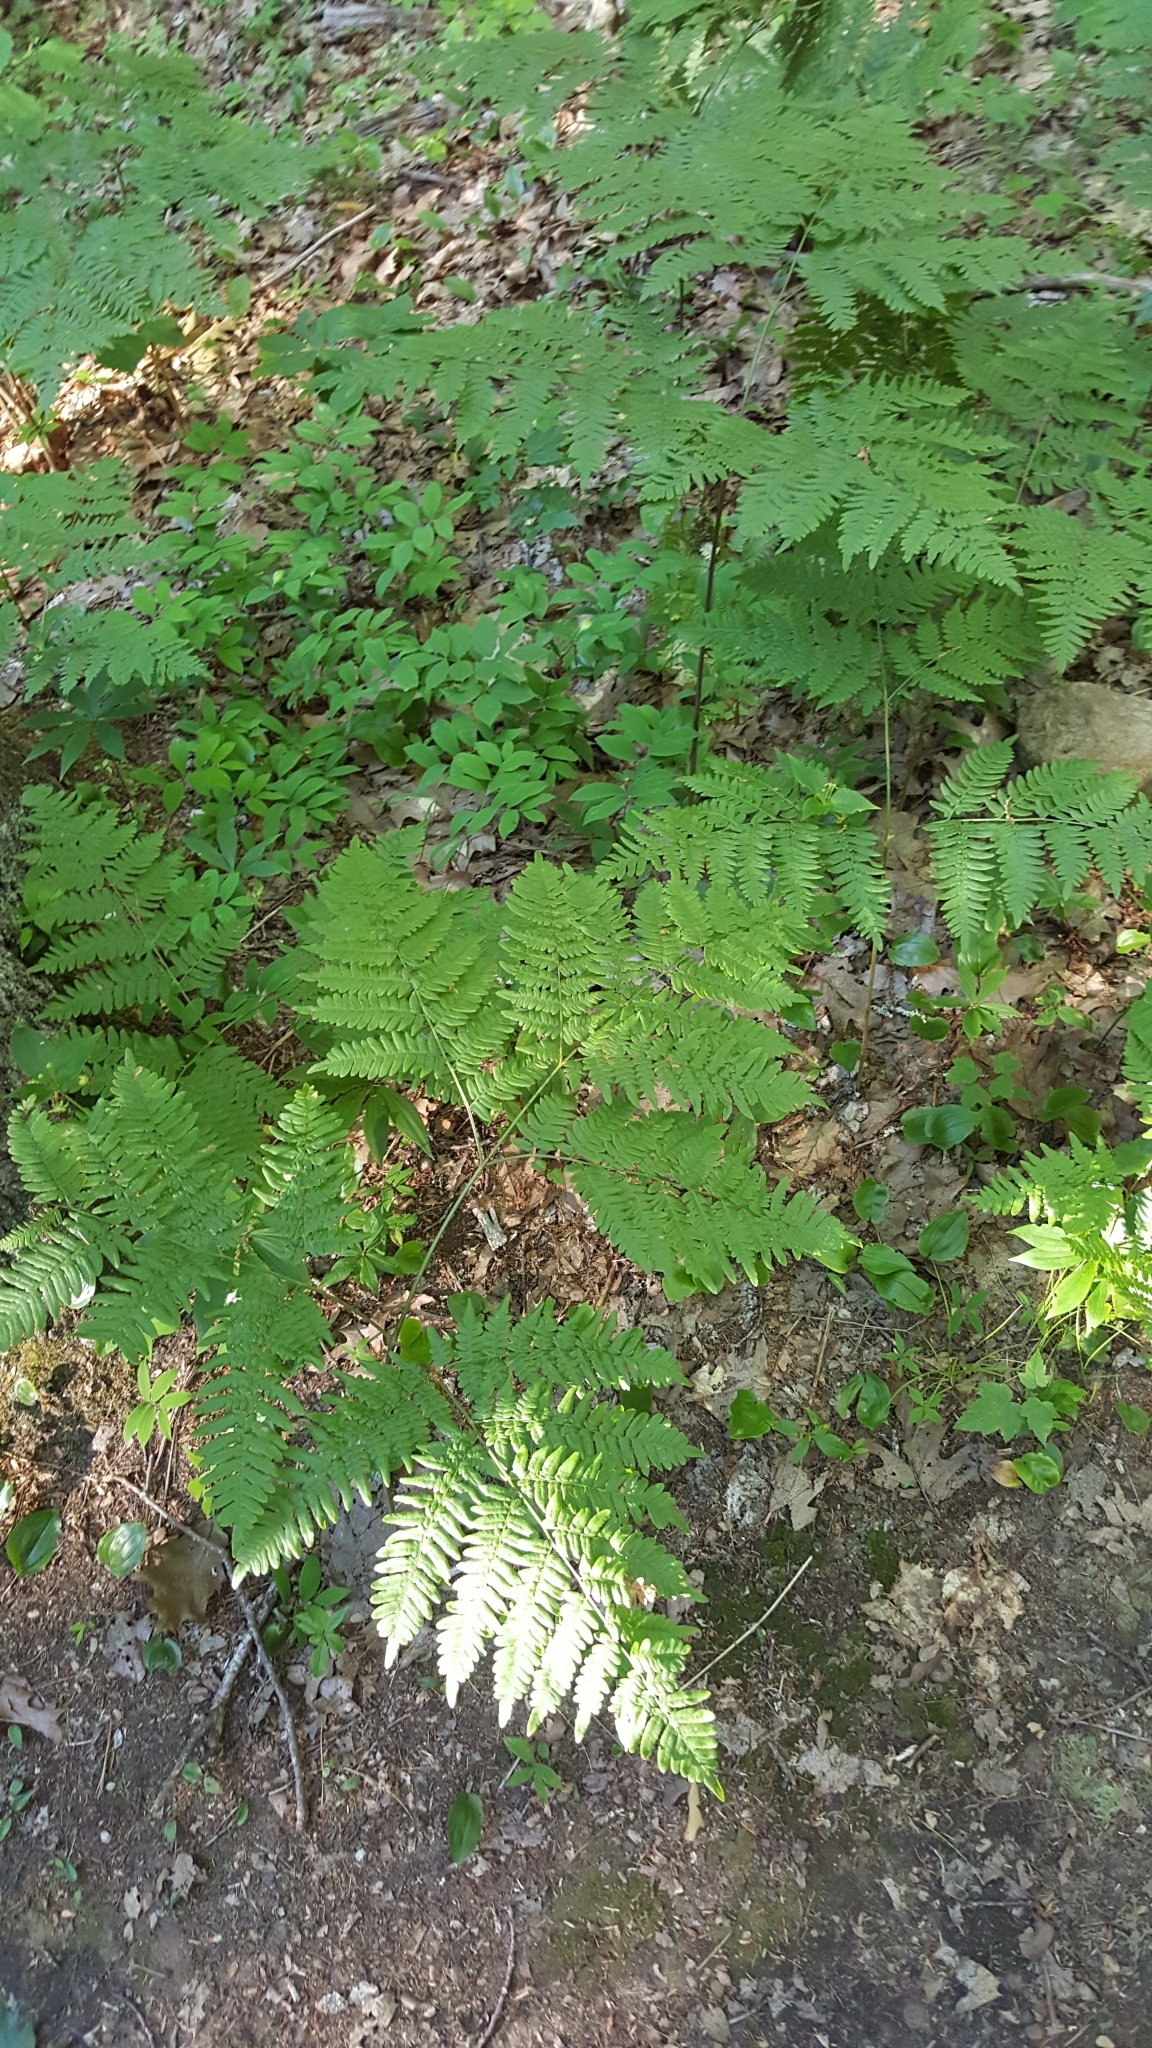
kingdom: Plantae
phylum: Tracheophyta
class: Polypodiopsida
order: Polypodiales
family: Dennstaedtiaceae
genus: Pteridium
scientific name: Pteridium aquilinum
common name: Bracken
